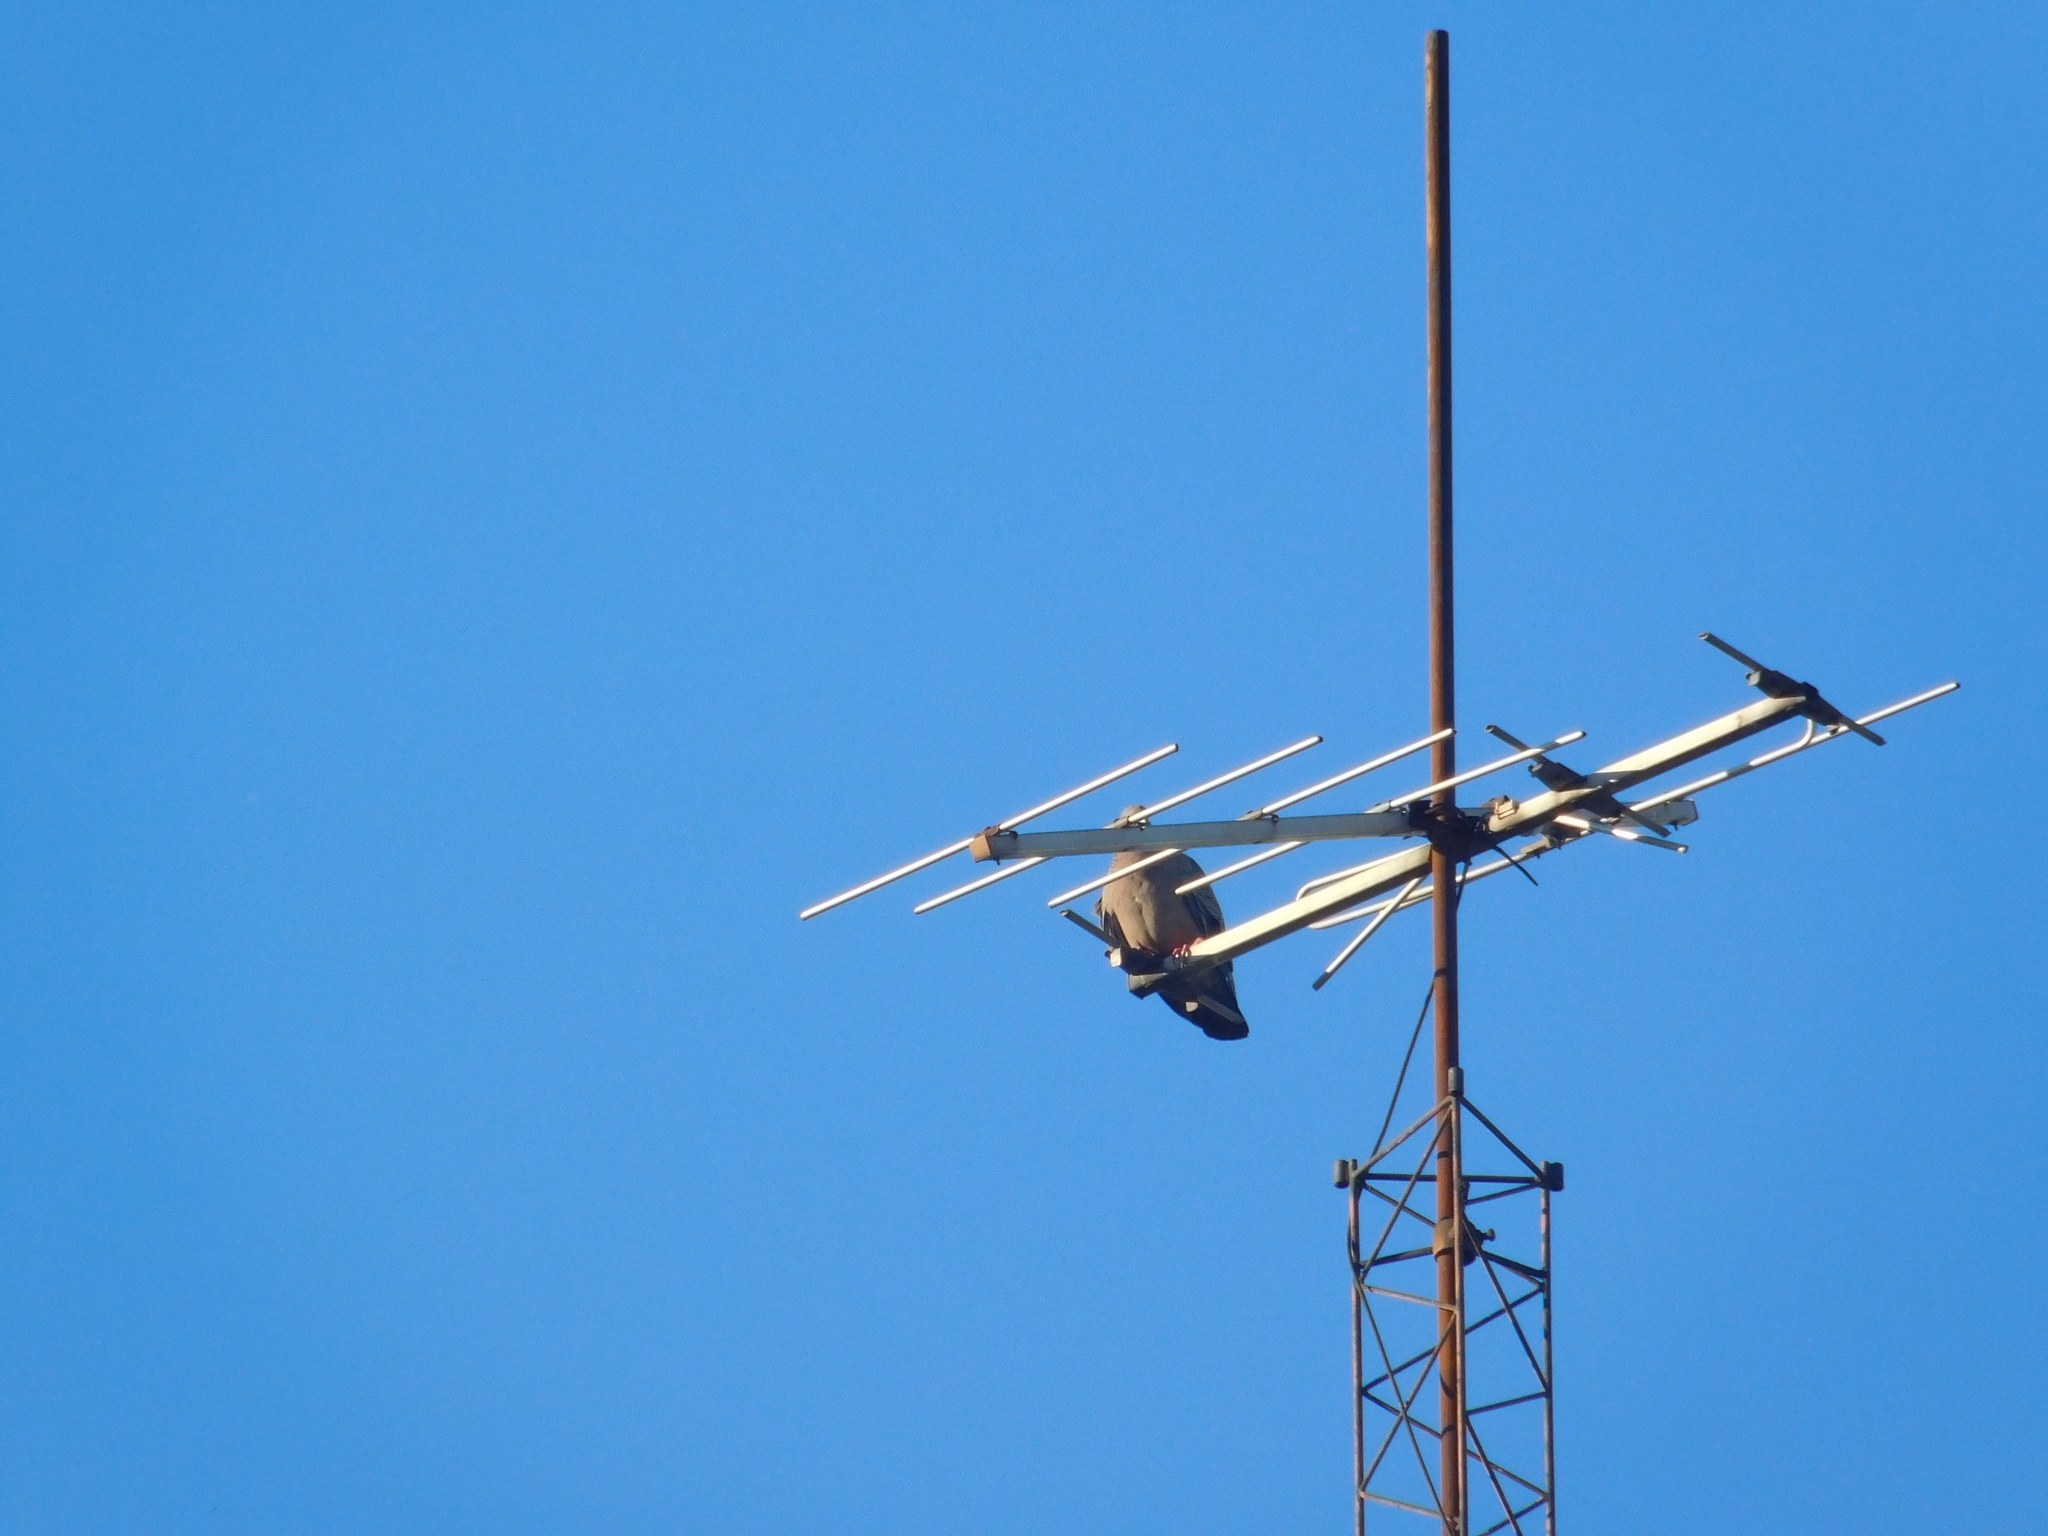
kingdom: Animalia
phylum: Chordata
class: Aves
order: Columbiformes
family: Columbidae
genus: Patagioenas
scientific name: Patagioenas picazuro
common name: Picazuro pigeon
